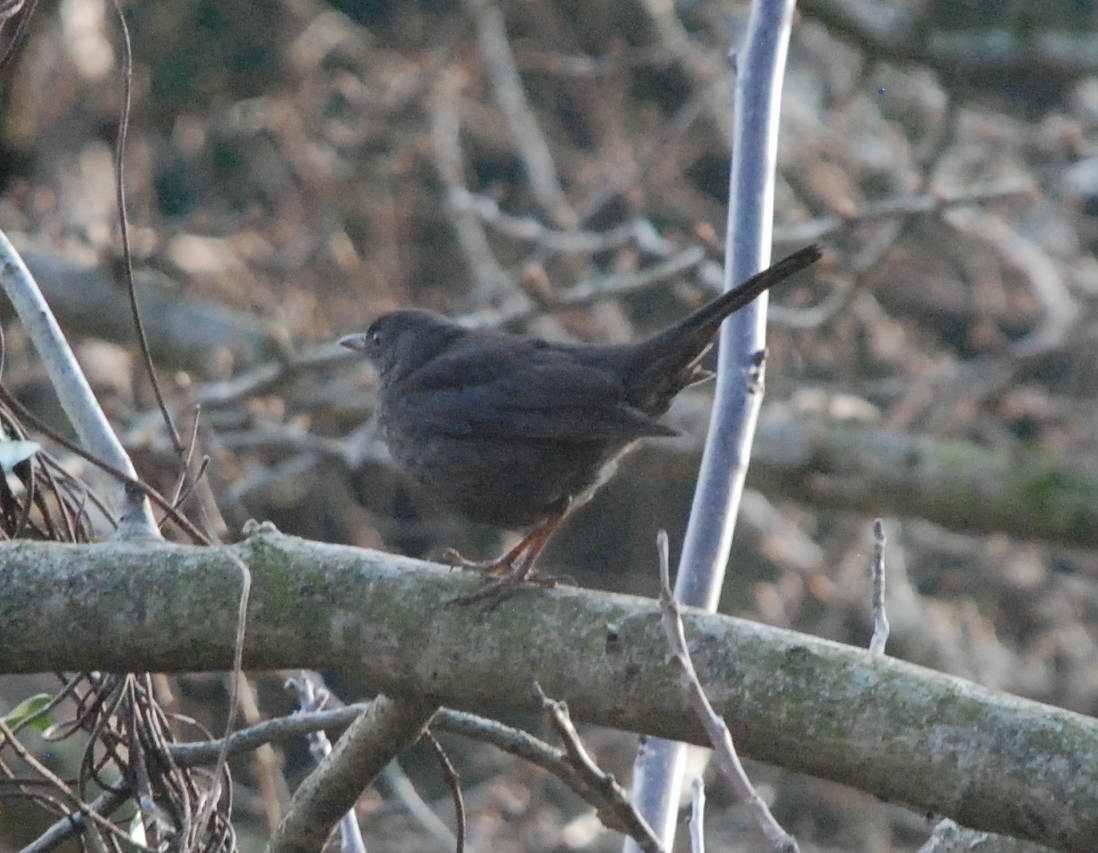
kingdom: Animalia
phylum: Chordata
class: Aves
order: Passeriformes
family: Turdidae
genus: Turdus
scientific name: Turdus merula
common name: Common blackbird
